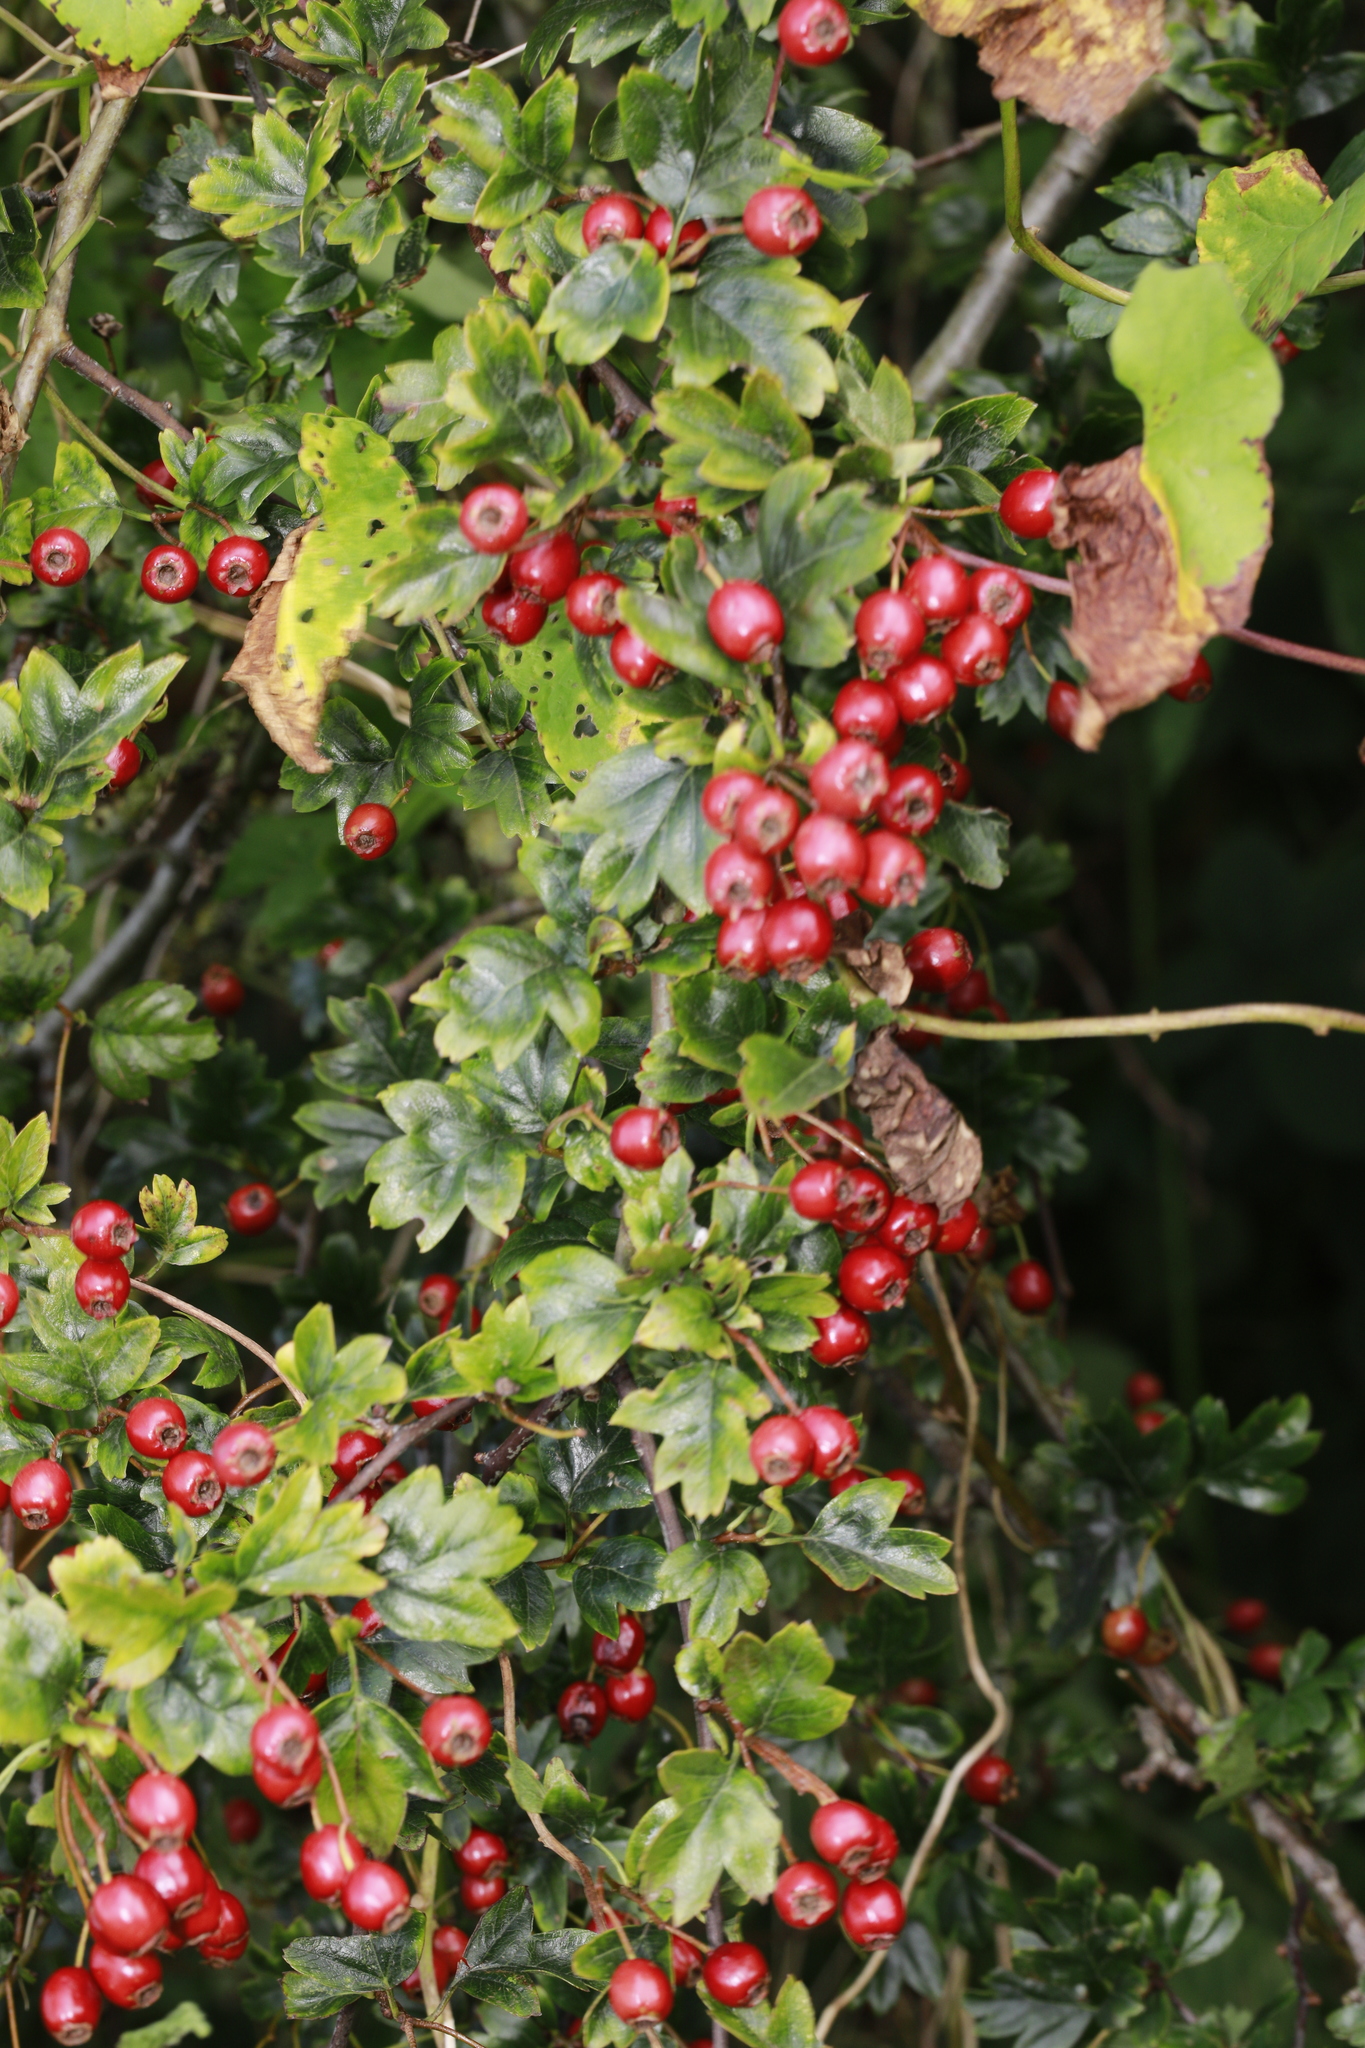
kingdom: Plantae
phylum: Tracheophyta
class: Magnoliopsida
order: Rosales
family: Rosaceae
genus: Crataegus
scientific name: Crataegus monogyna
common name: Hawthorn
